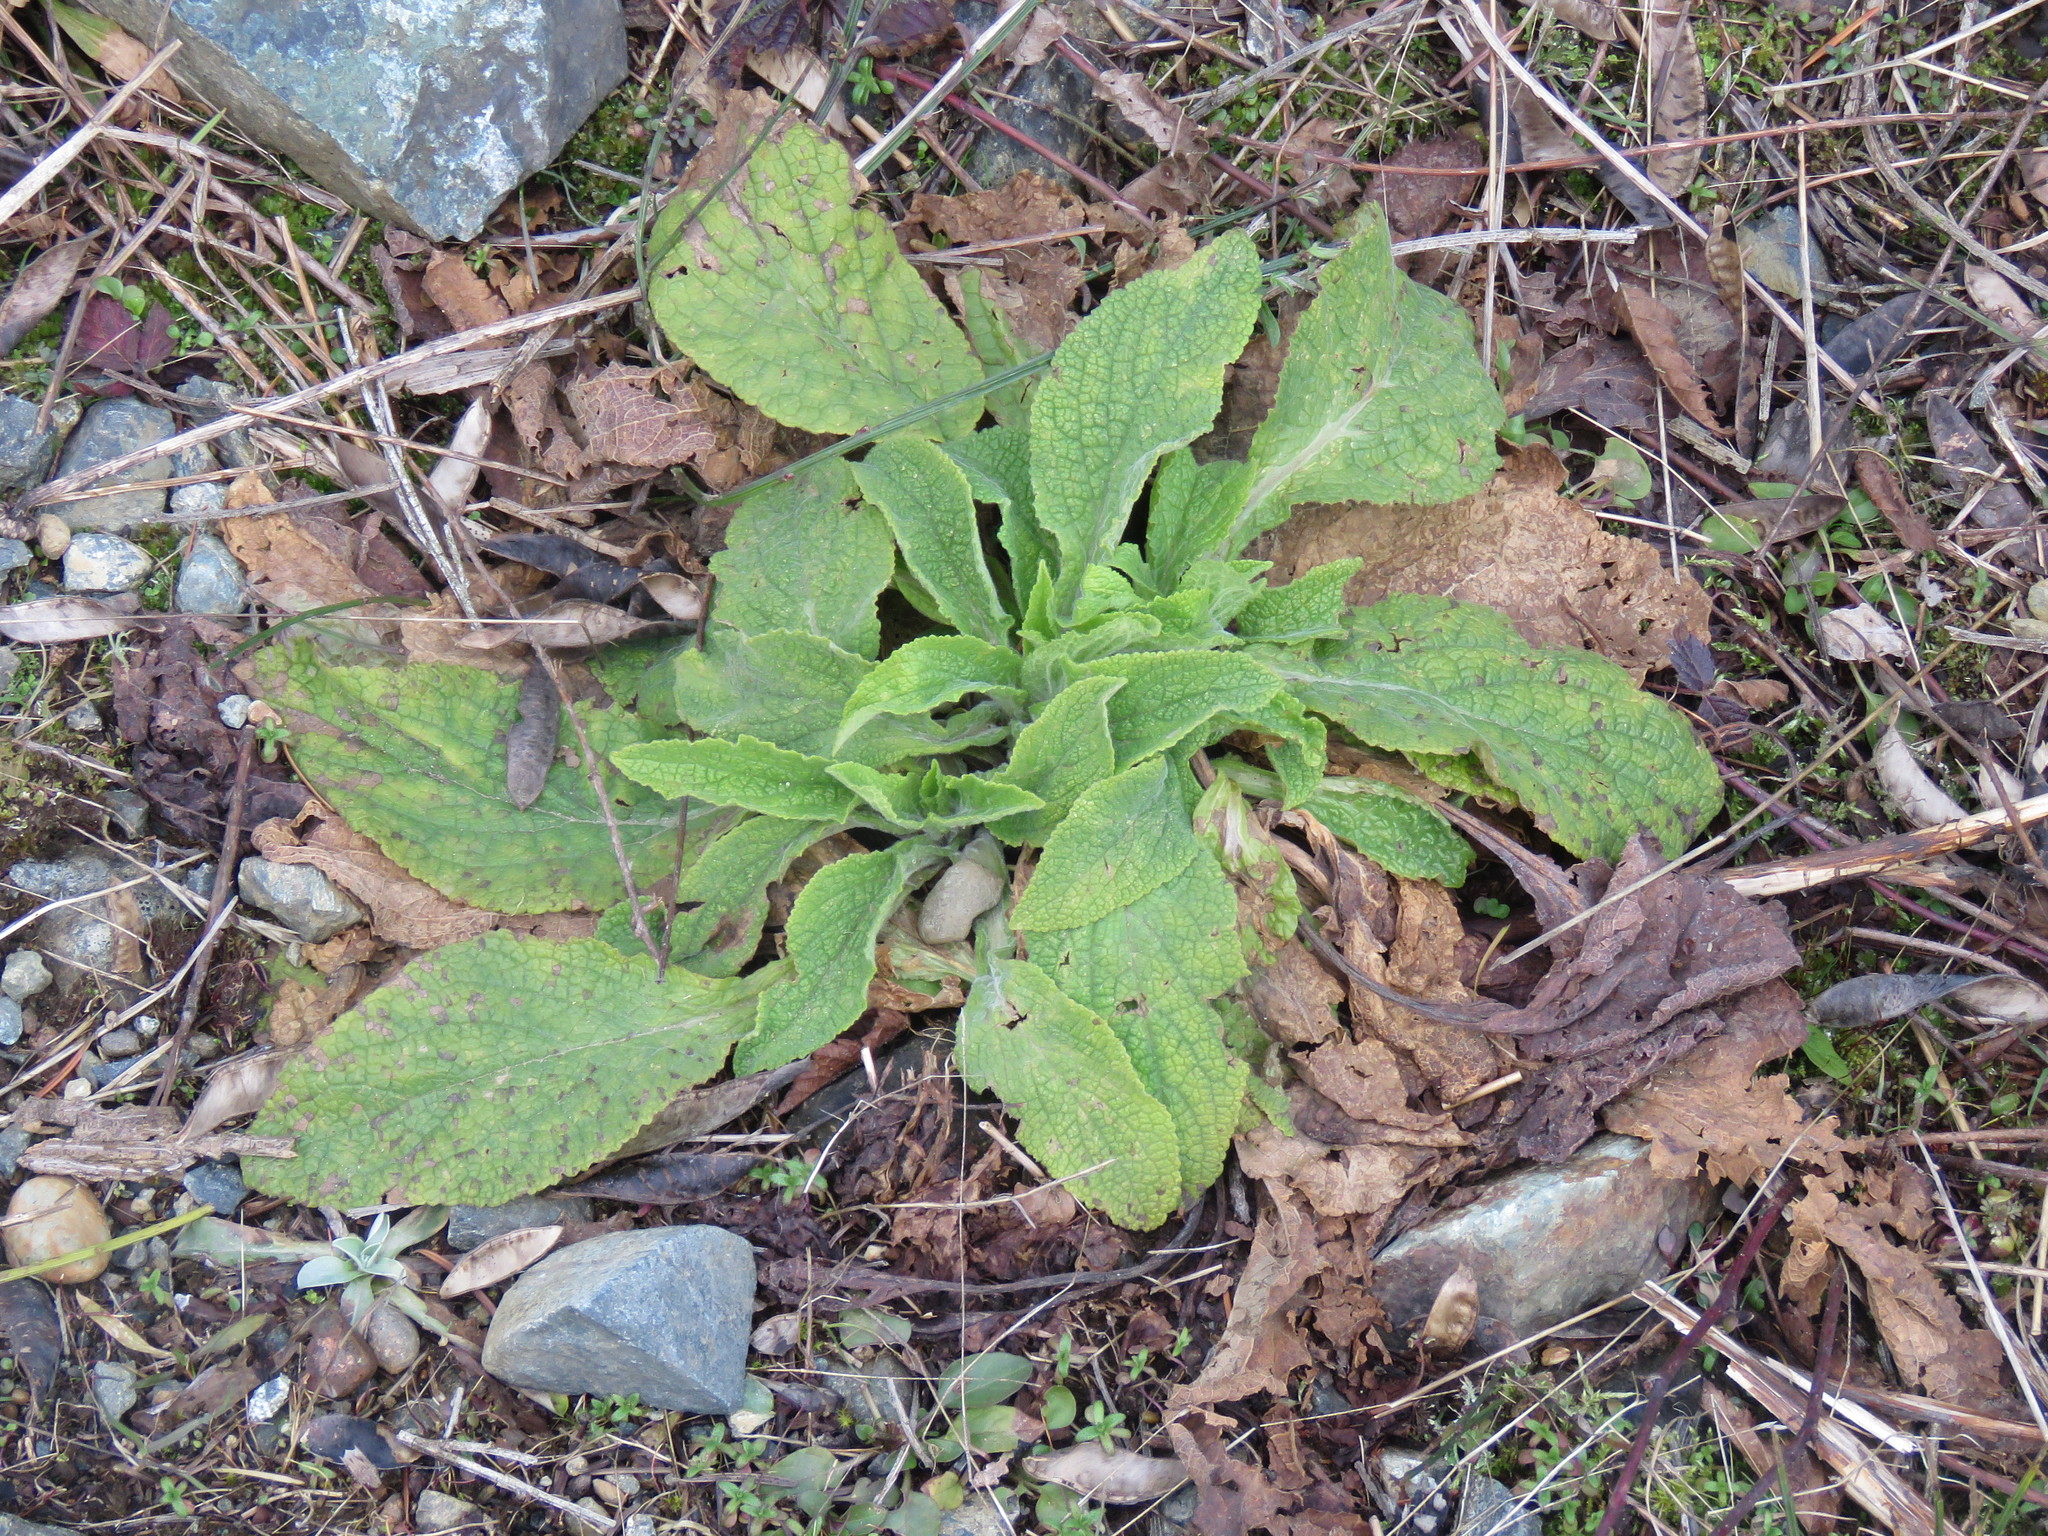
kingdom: Plantae
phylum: Tracheophyta
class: Magnoliopsida
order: Lamiales
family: Plantaginaceae
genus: Digitalis
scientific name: Digitalis purpurea
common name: Foxglove
